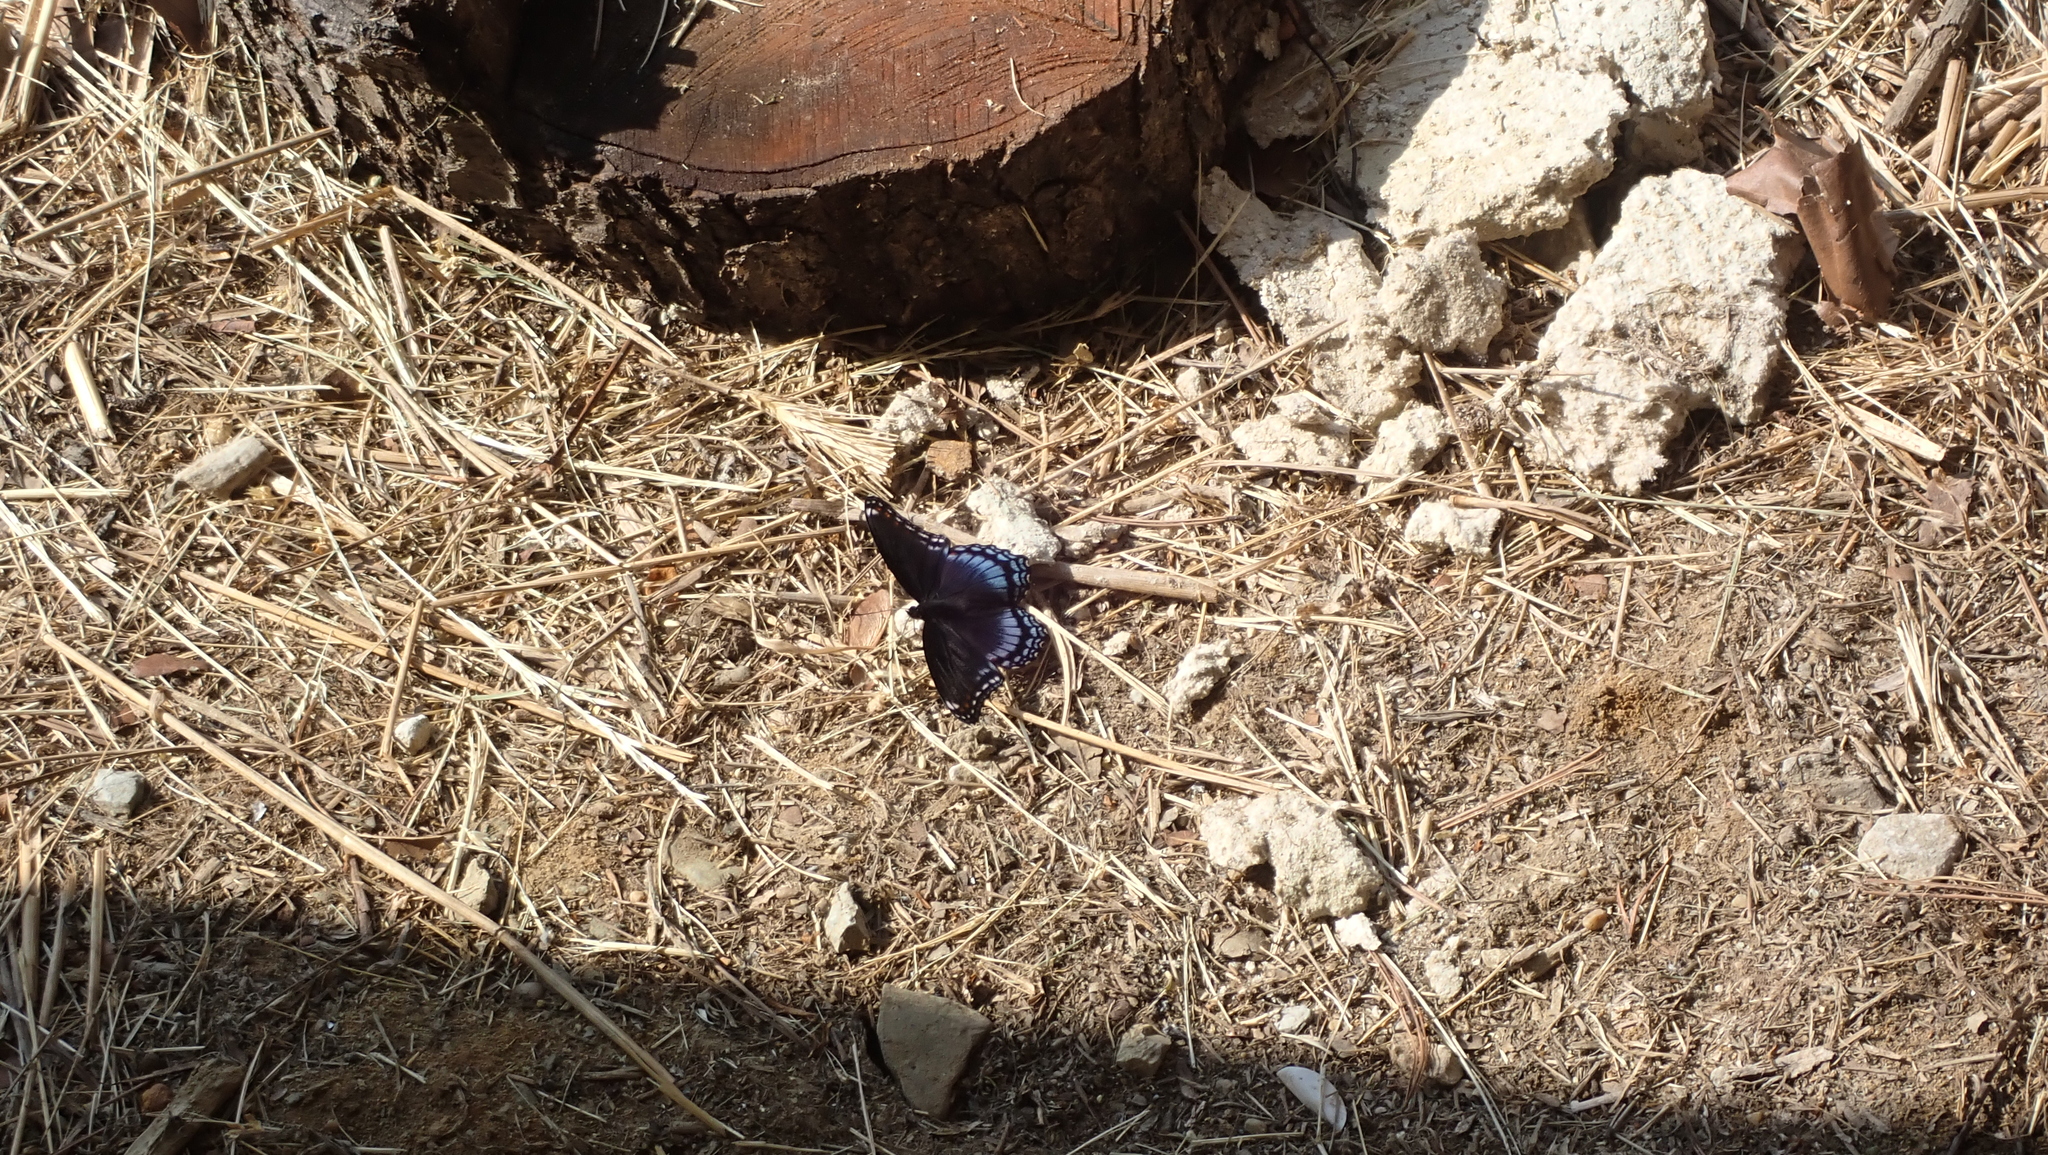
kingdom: Animalia
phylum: Arthropoda
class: Insecta
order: Lepidoptera
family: Nymphalidae
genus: Limenitis
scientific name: Limenitis astyanax
